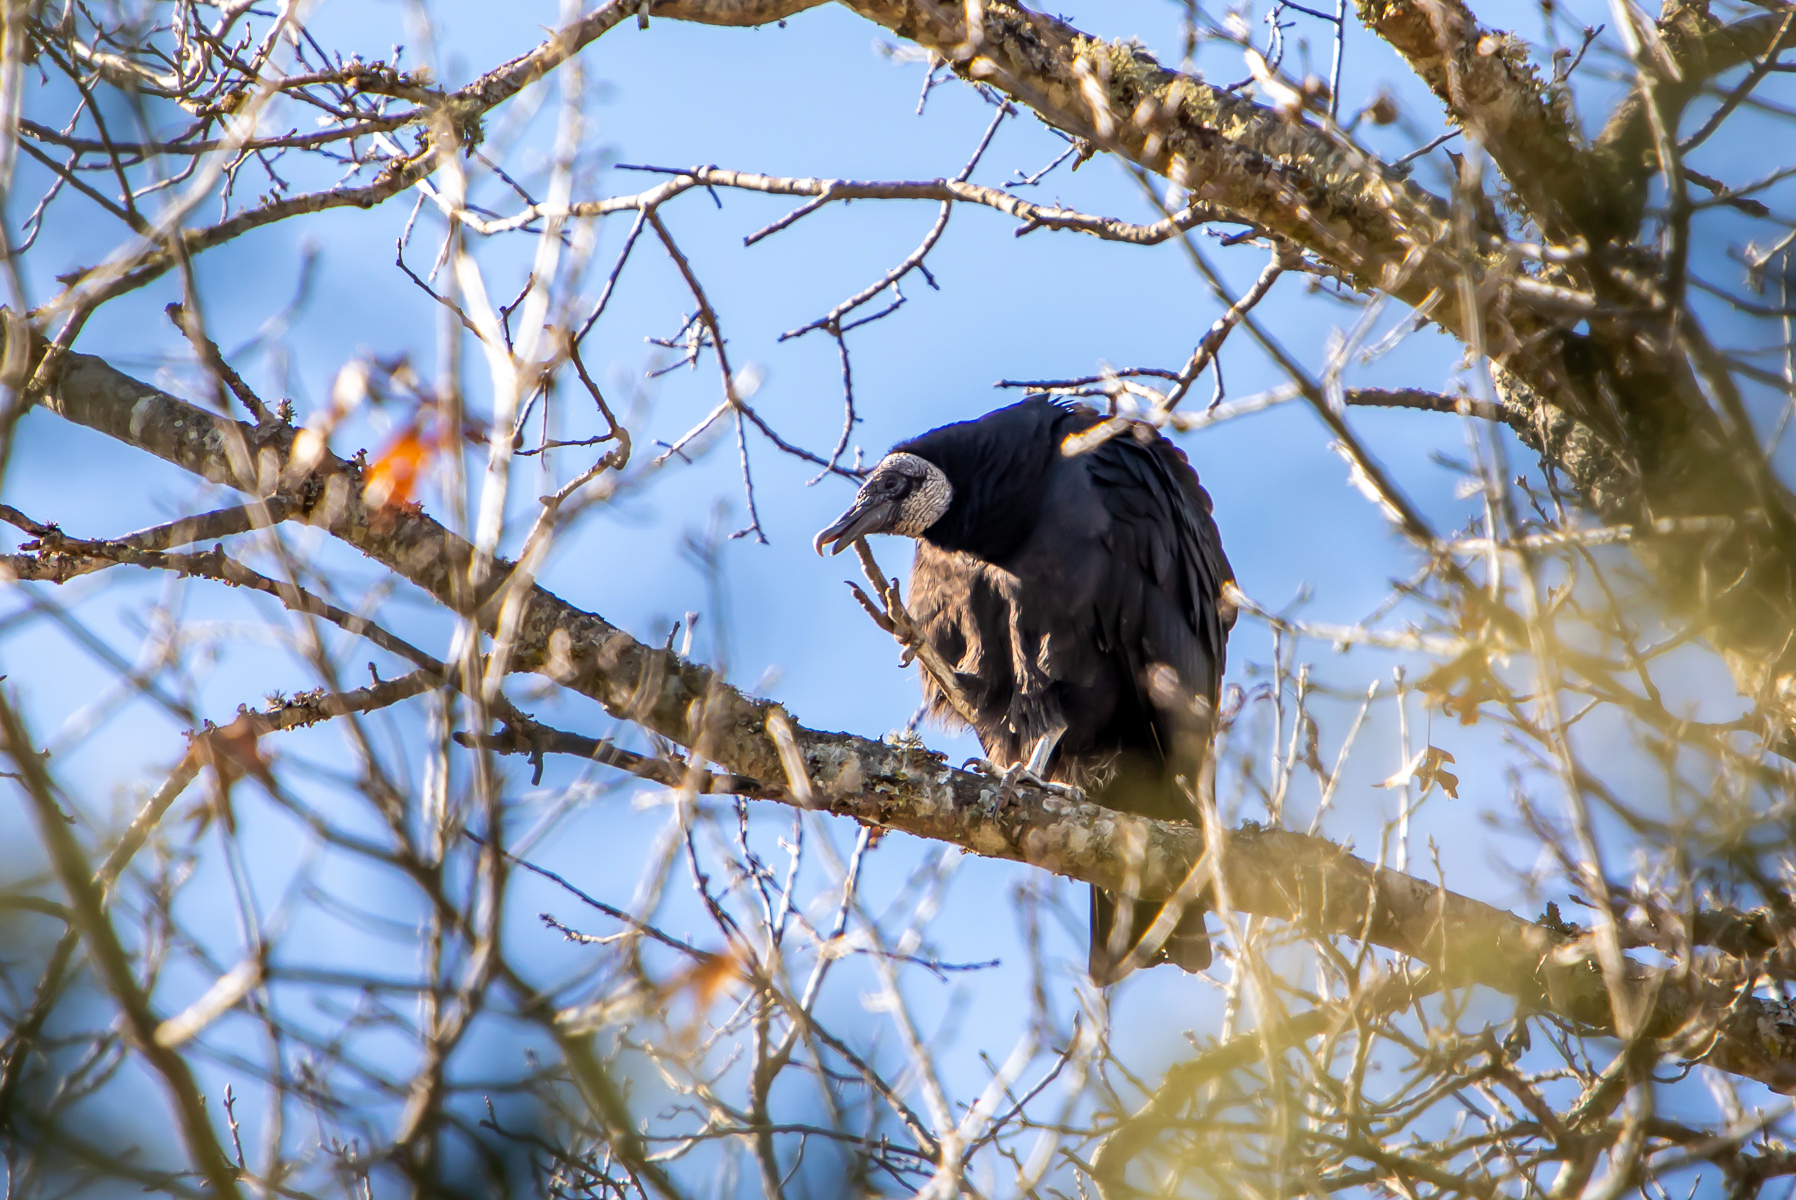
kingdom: Animalia
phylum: Chordata
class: Aves
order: Accipitriformes
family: Cathartidae
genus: Coragyps
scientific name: Coragyps atratus
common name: Black vulture
